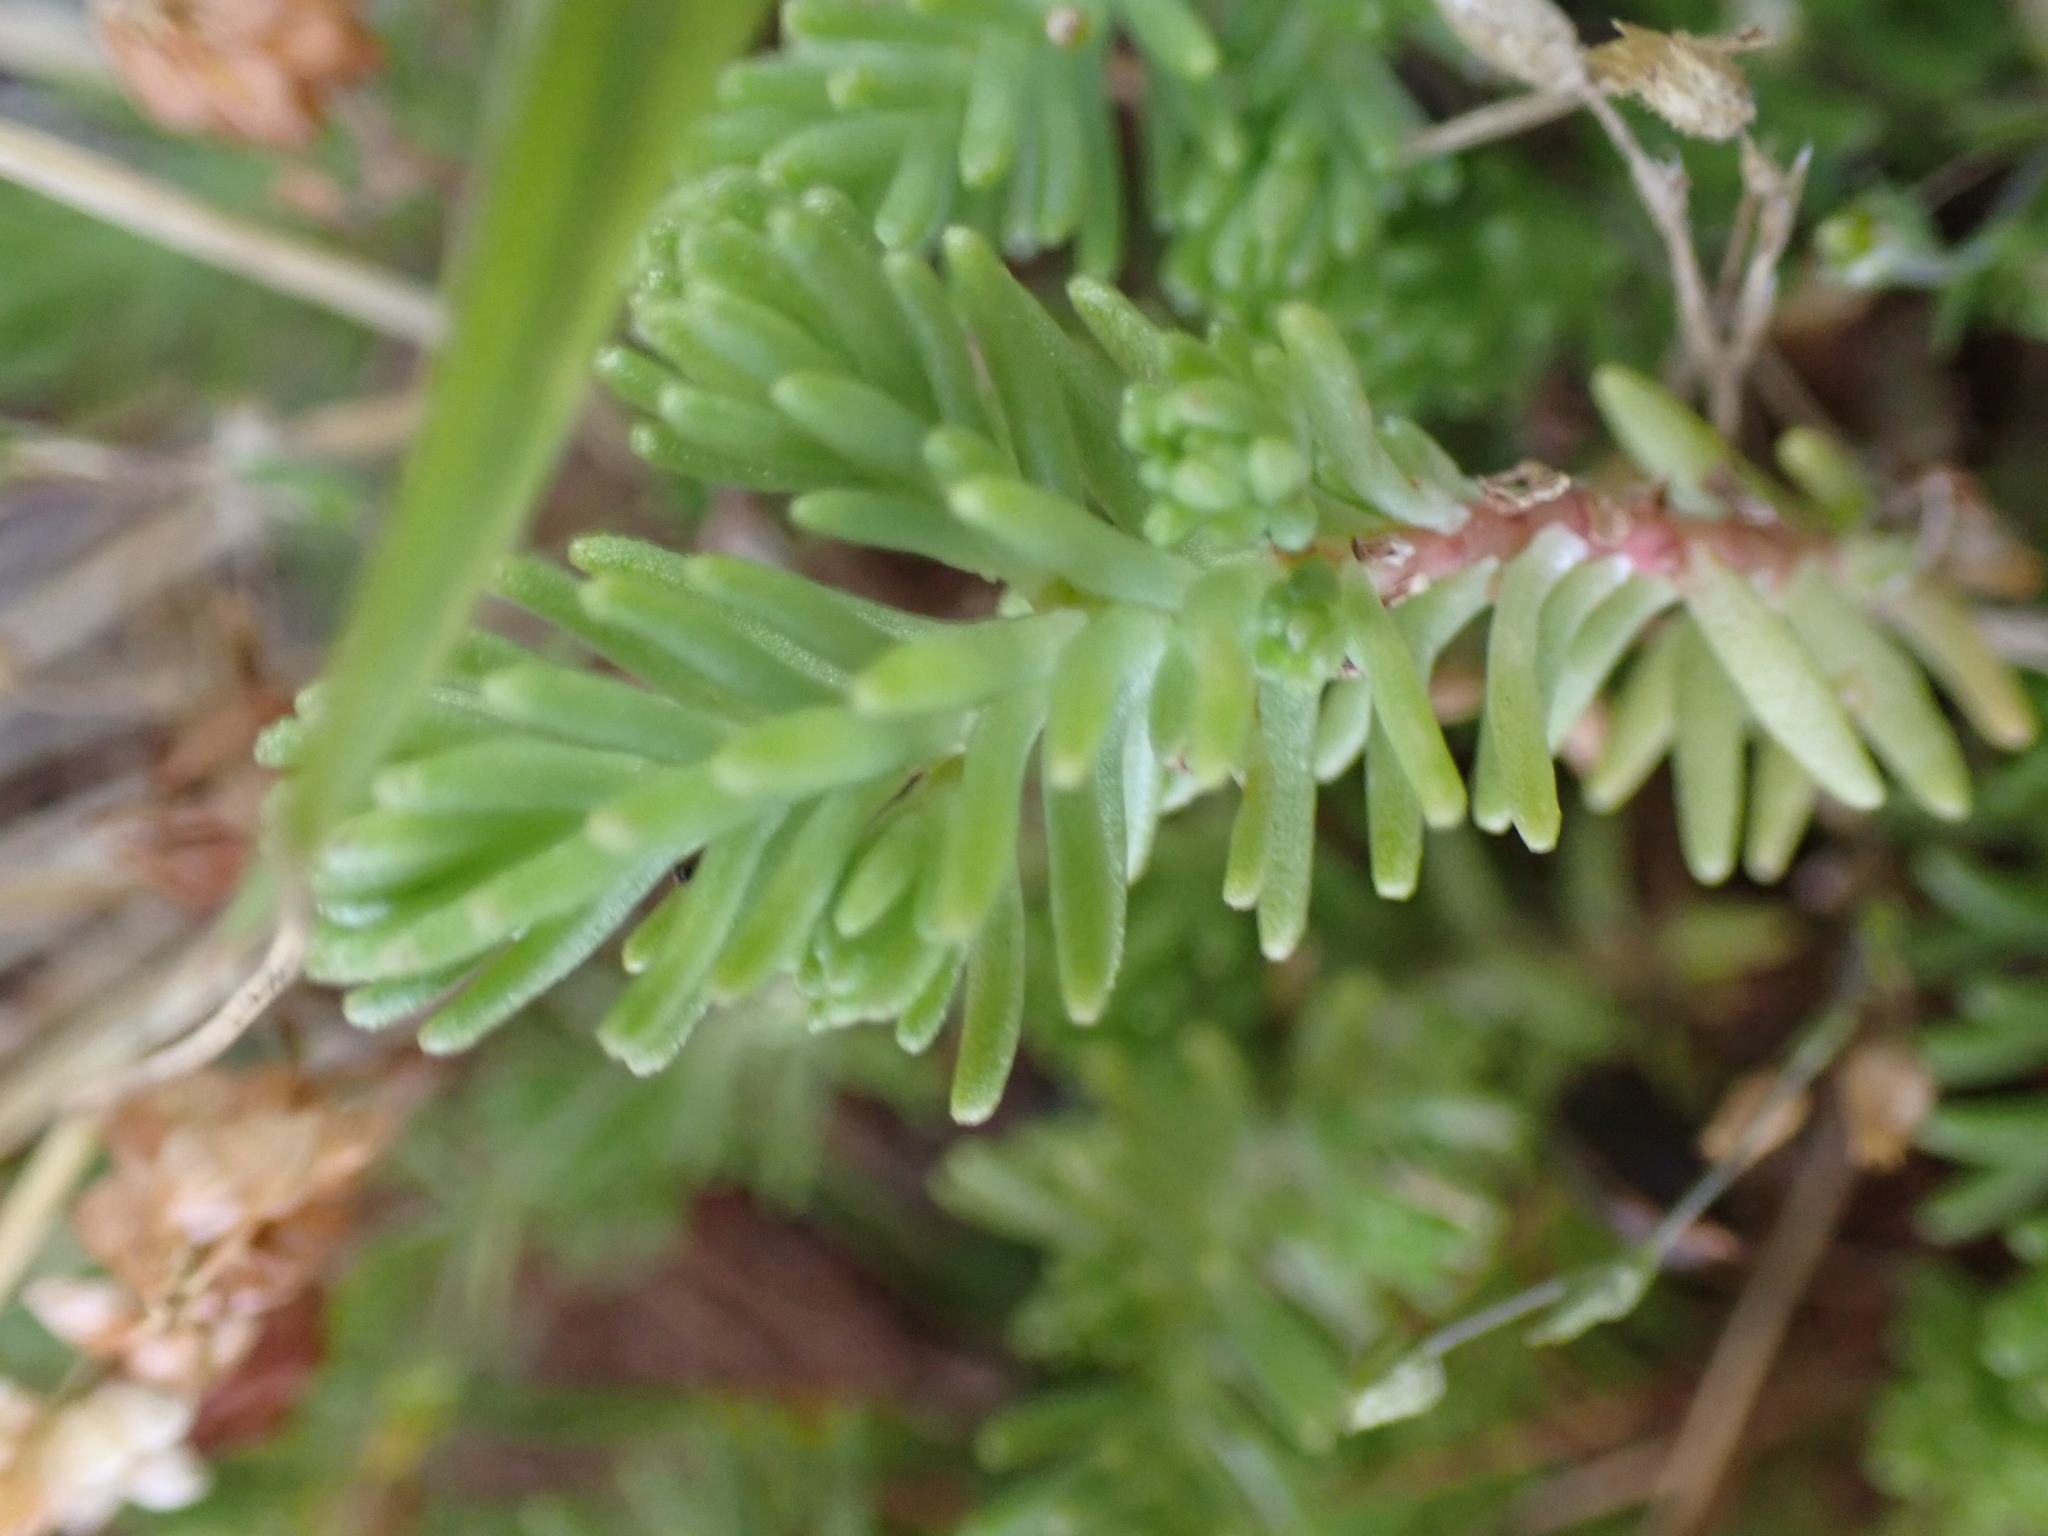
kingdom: Plantae
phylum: Tracheophyta
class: Magnoliopsida
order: Saxifragales
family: Crassulaceae
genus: Sedum
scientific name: Sedum sexangulare
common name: Tasteless stonecrop
